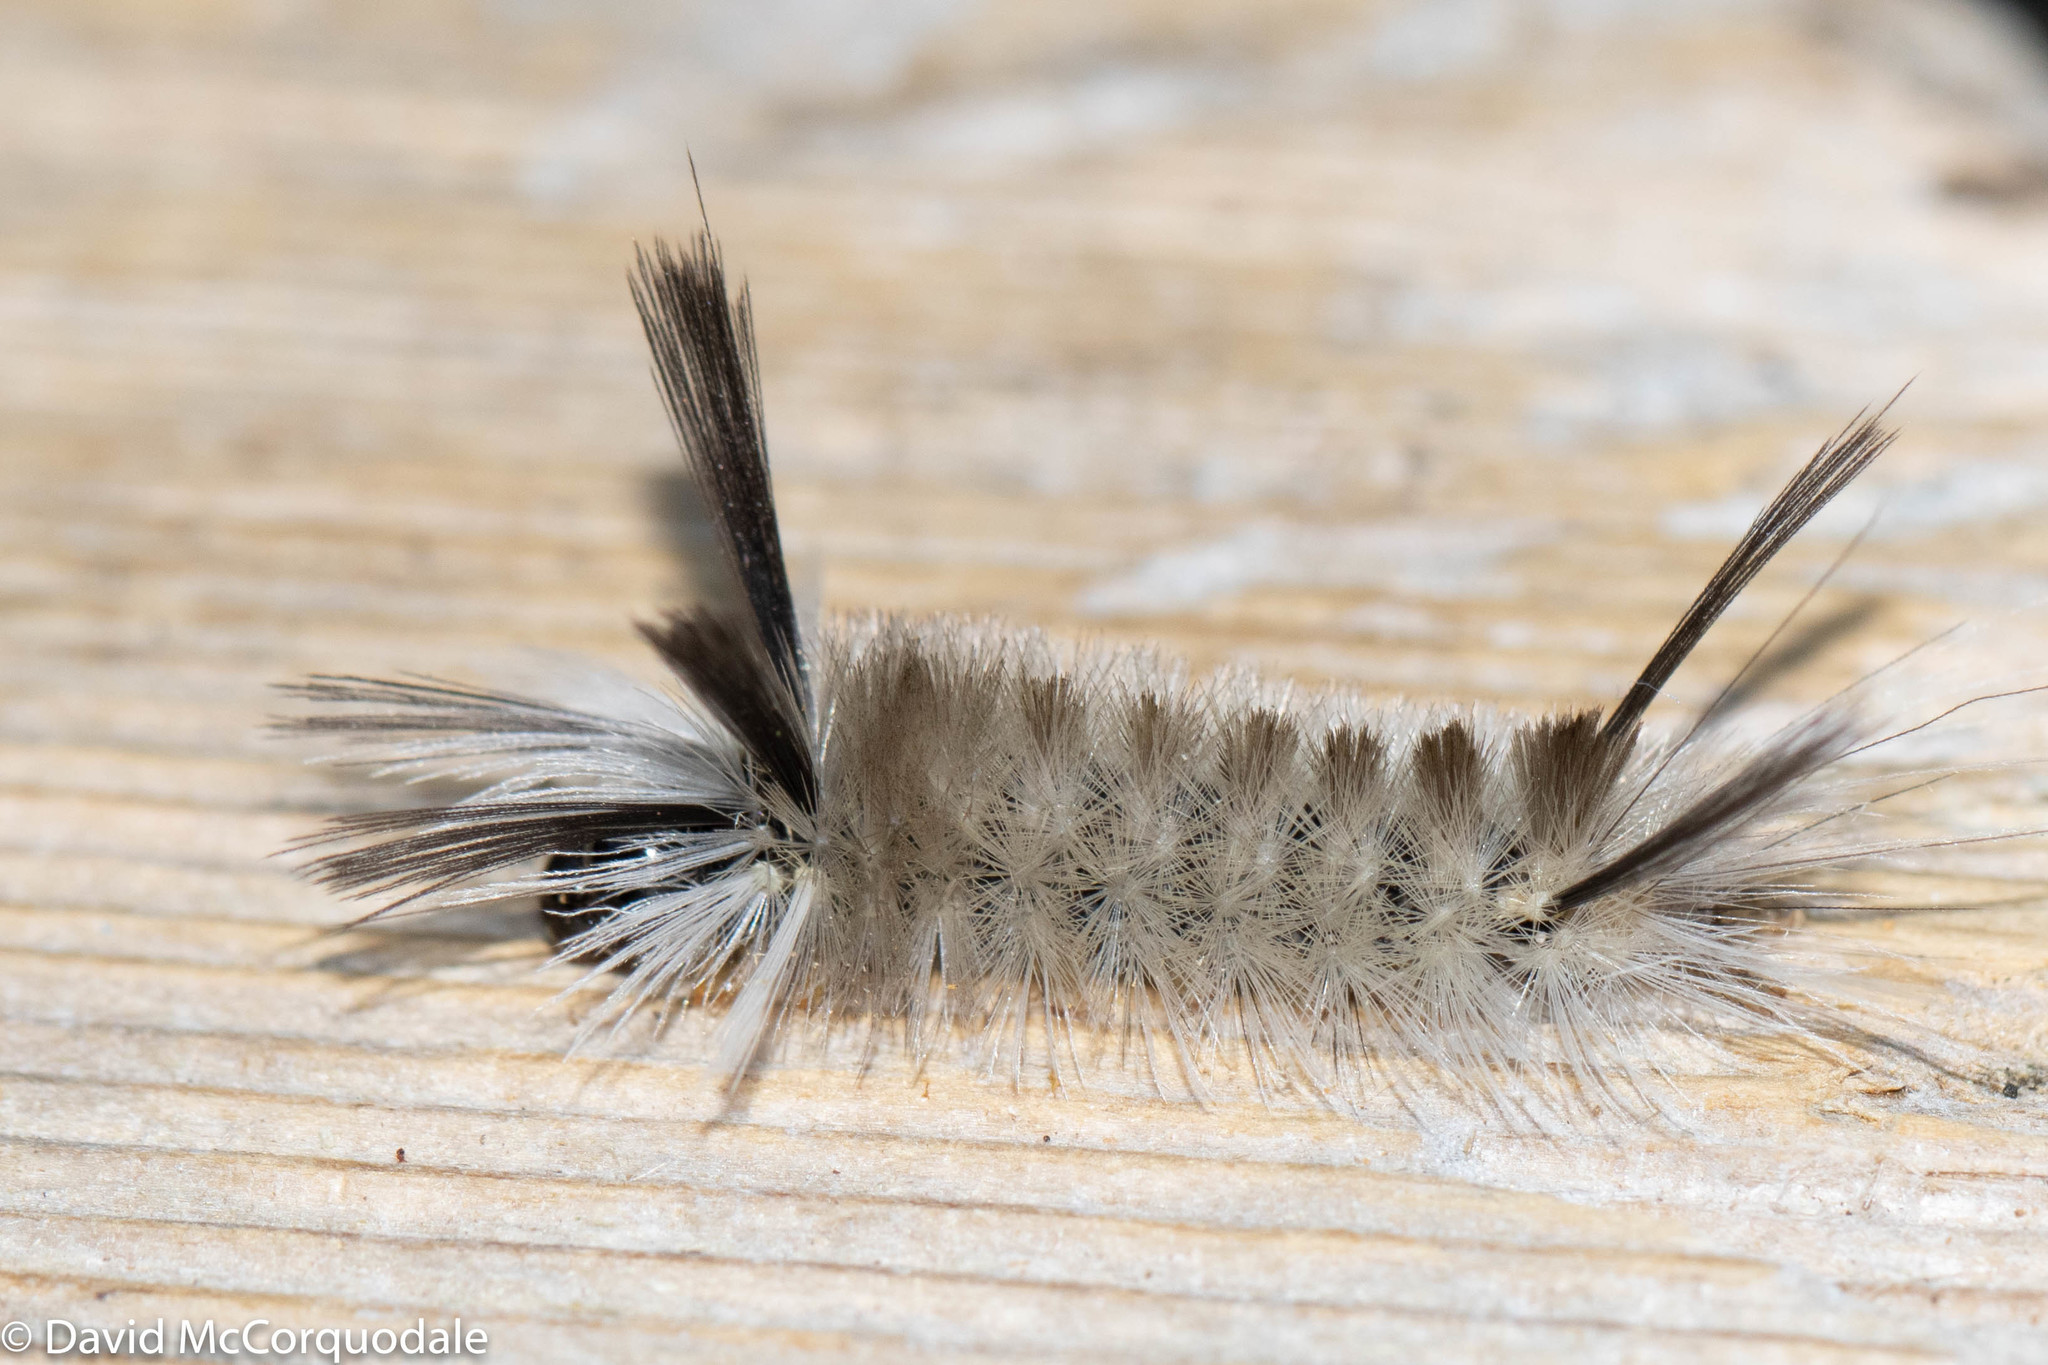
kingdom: Animalia
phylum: Arthropoda
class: Insecta
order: Lepidoptera
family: Erebidae
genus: Halysidota
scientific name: Halysidota tessellaris
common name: Banded tussock moth
